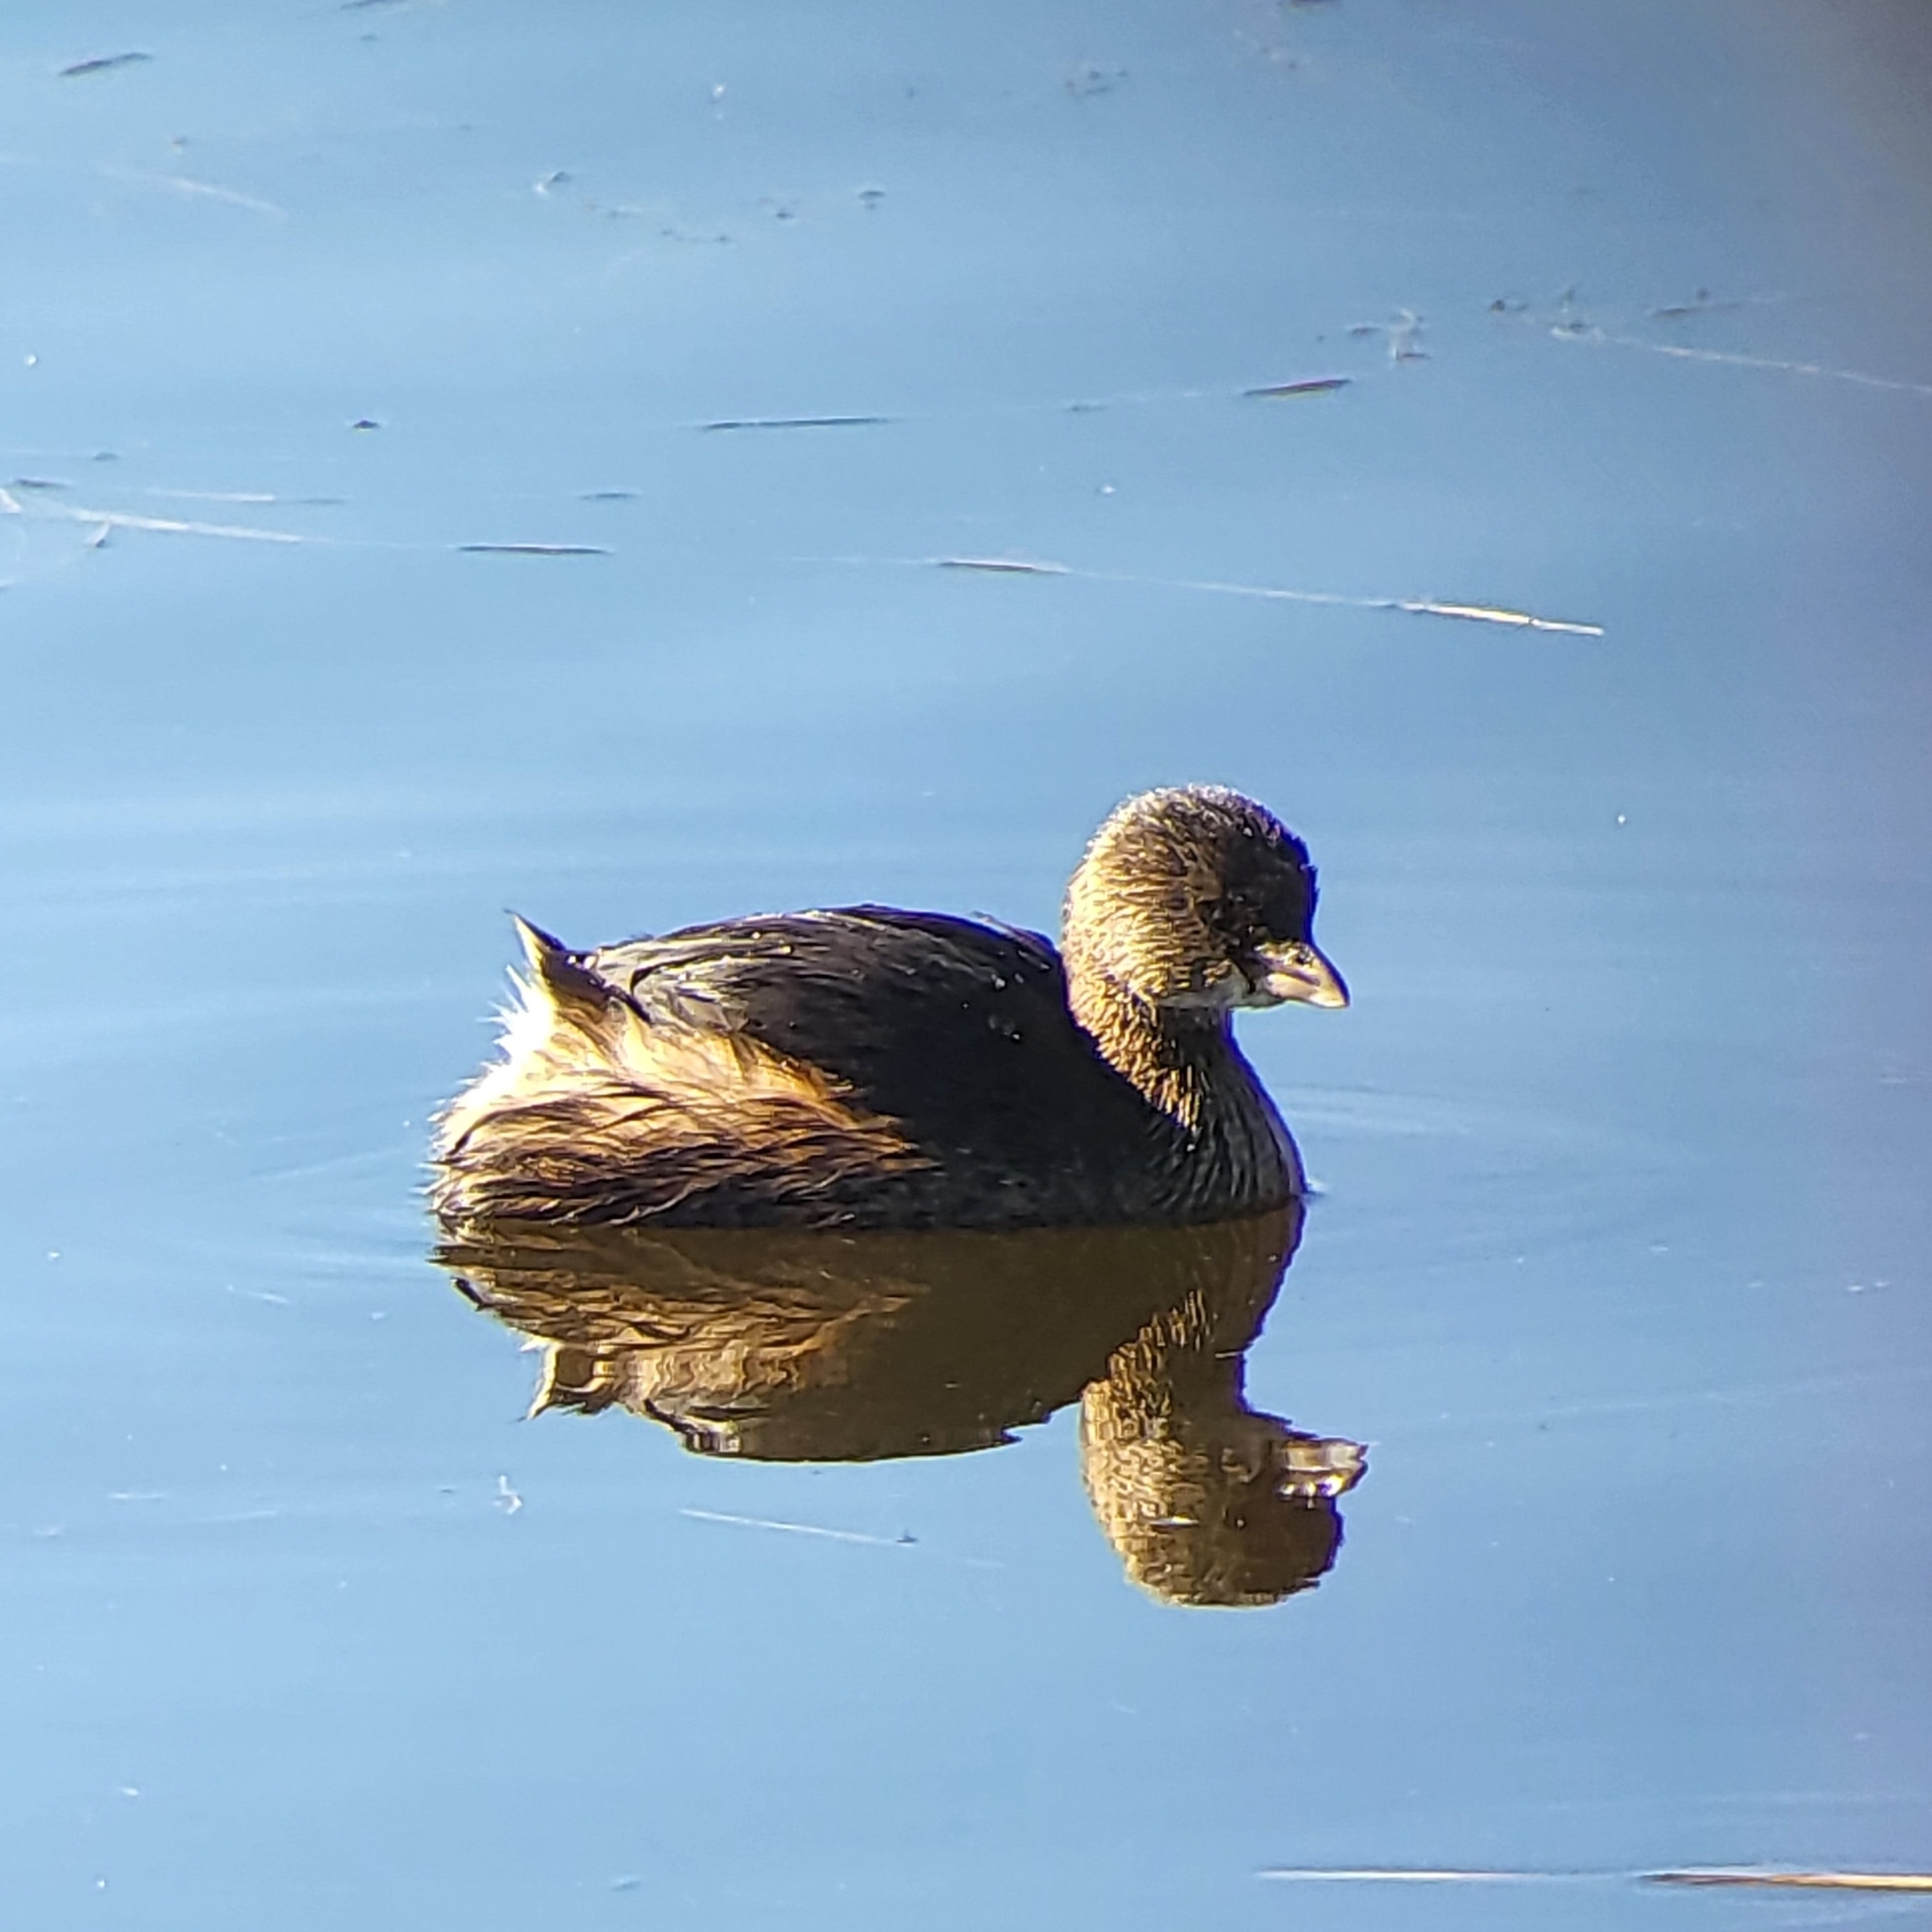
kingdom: Animalia
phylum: Chordata
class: Aves
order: Podicipediformes
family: Podicipedidae
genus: Podilymbus
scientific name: Podilymbus podiceps
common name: Pied-billed grebe
